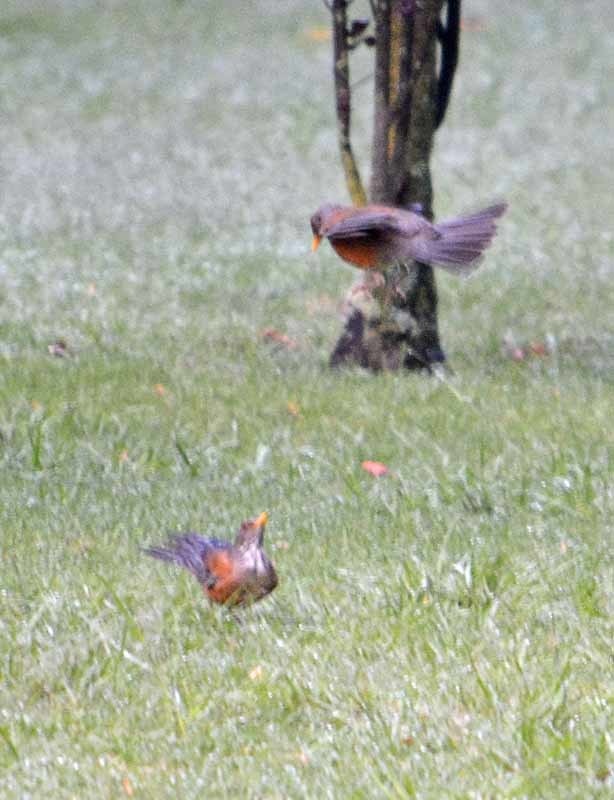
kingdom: Animalia
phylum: Chordata
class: Aves
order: Passeriformes
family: Turdidae
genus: Turdus
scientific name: Turdus rufopalliatus
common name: Rufous-backed robin
